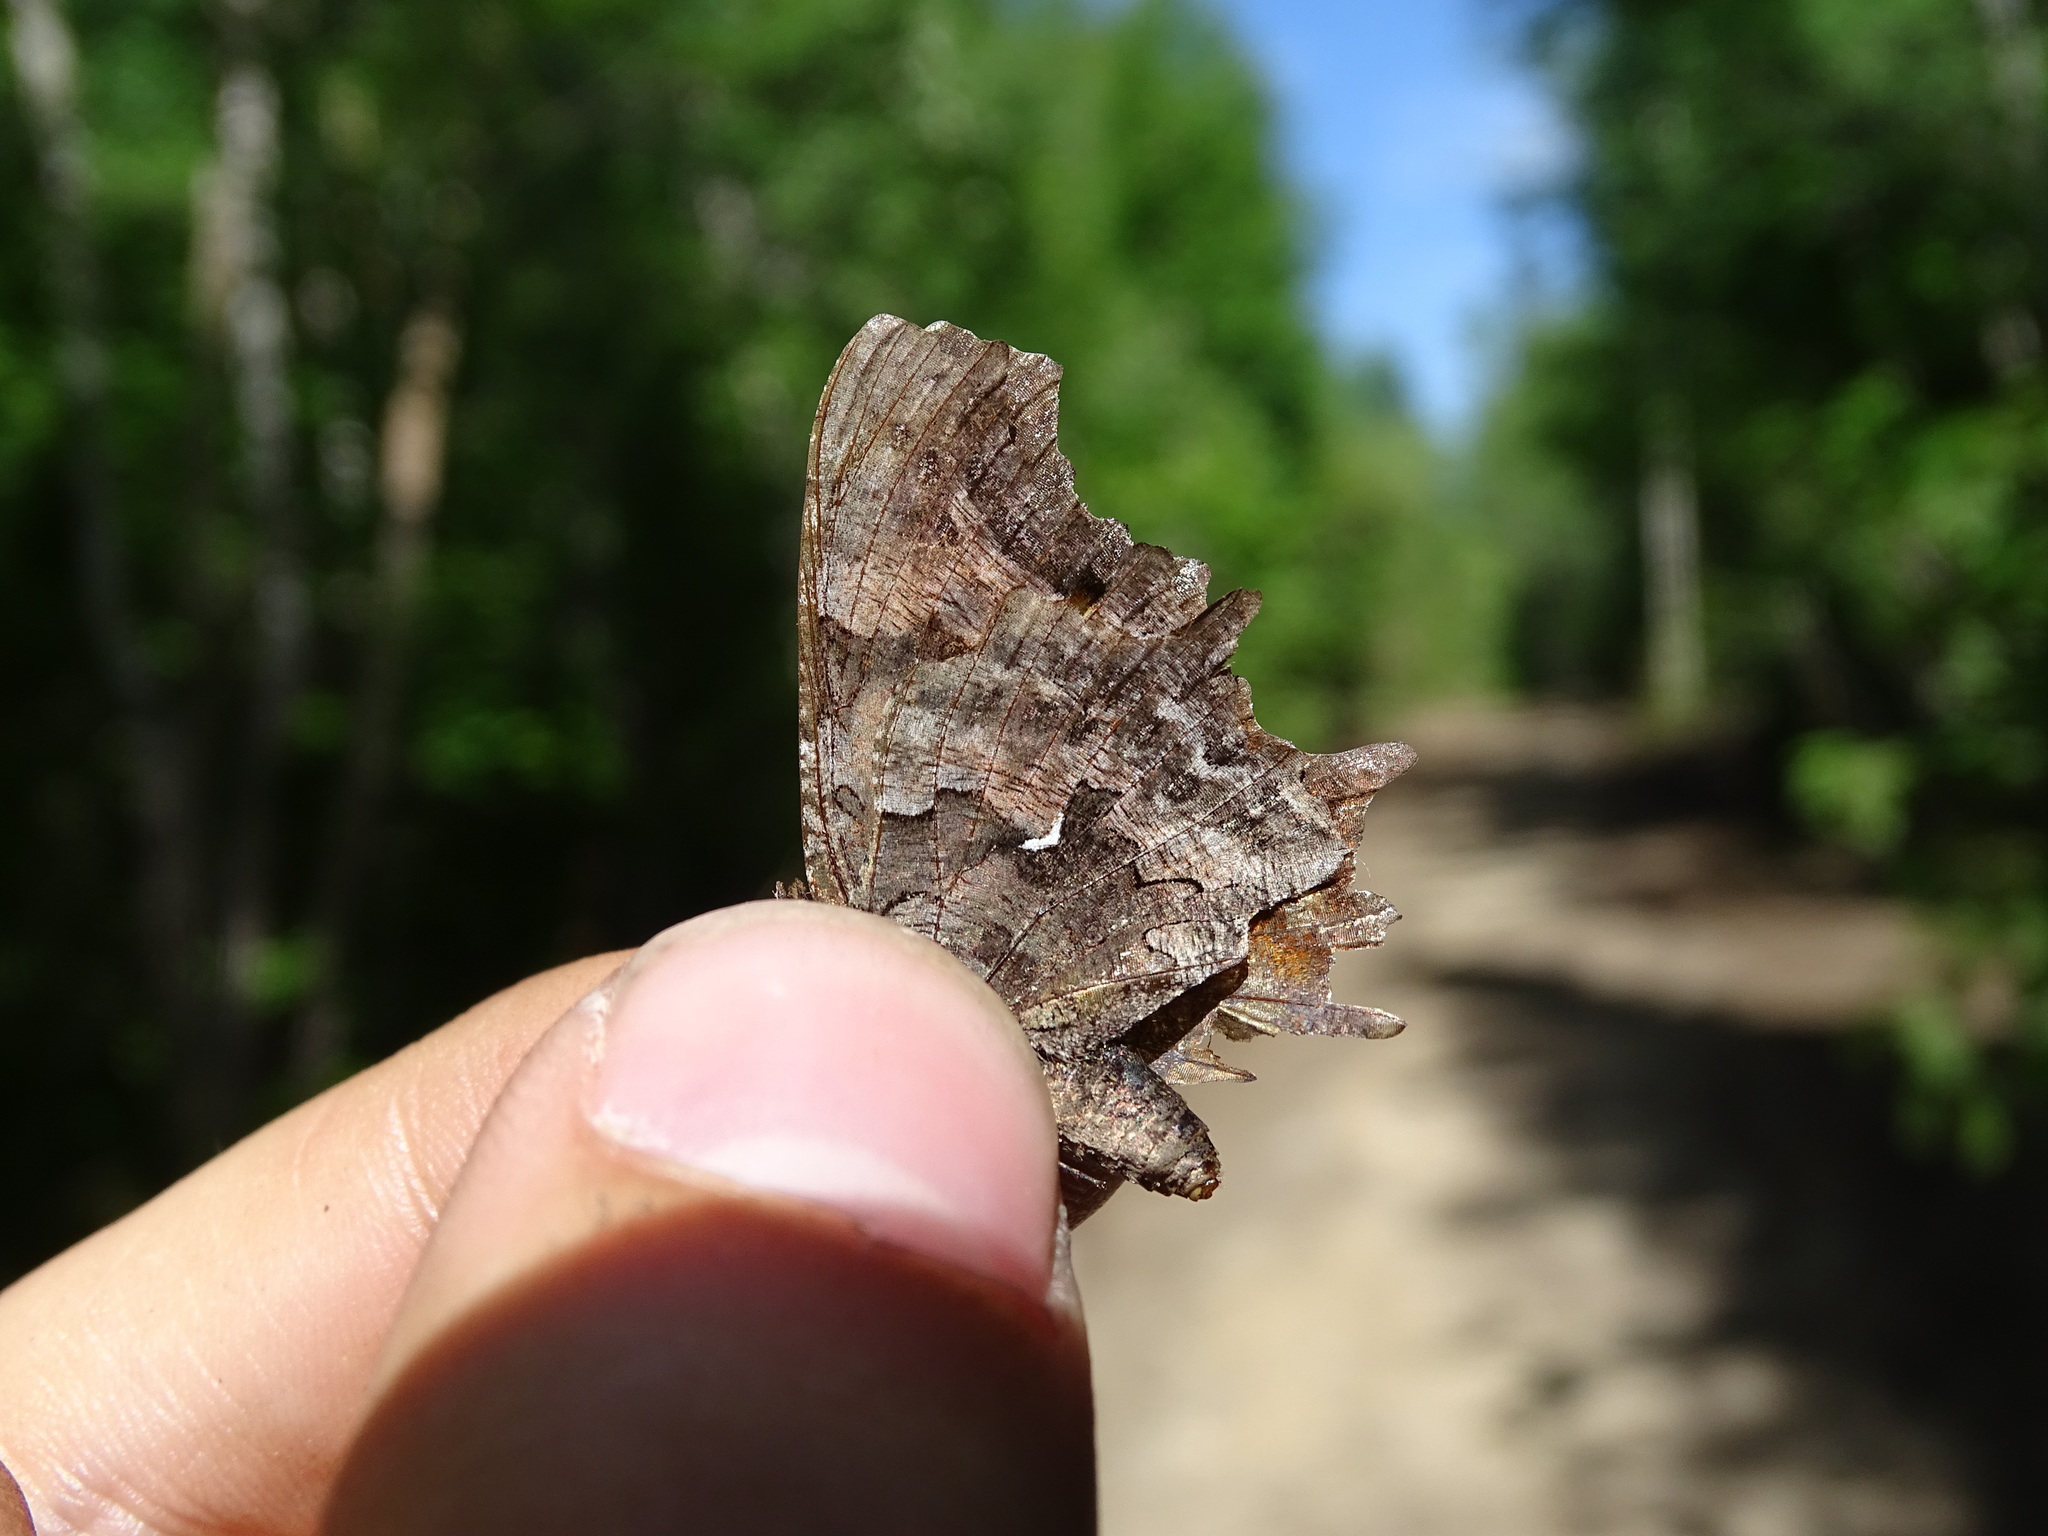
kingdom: Animalia
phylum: Arthropoda
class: Insecta
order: Lepidoptera
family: Nymphalidae
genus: Polygonia
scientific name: Polygonia faunus
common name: Green comma
